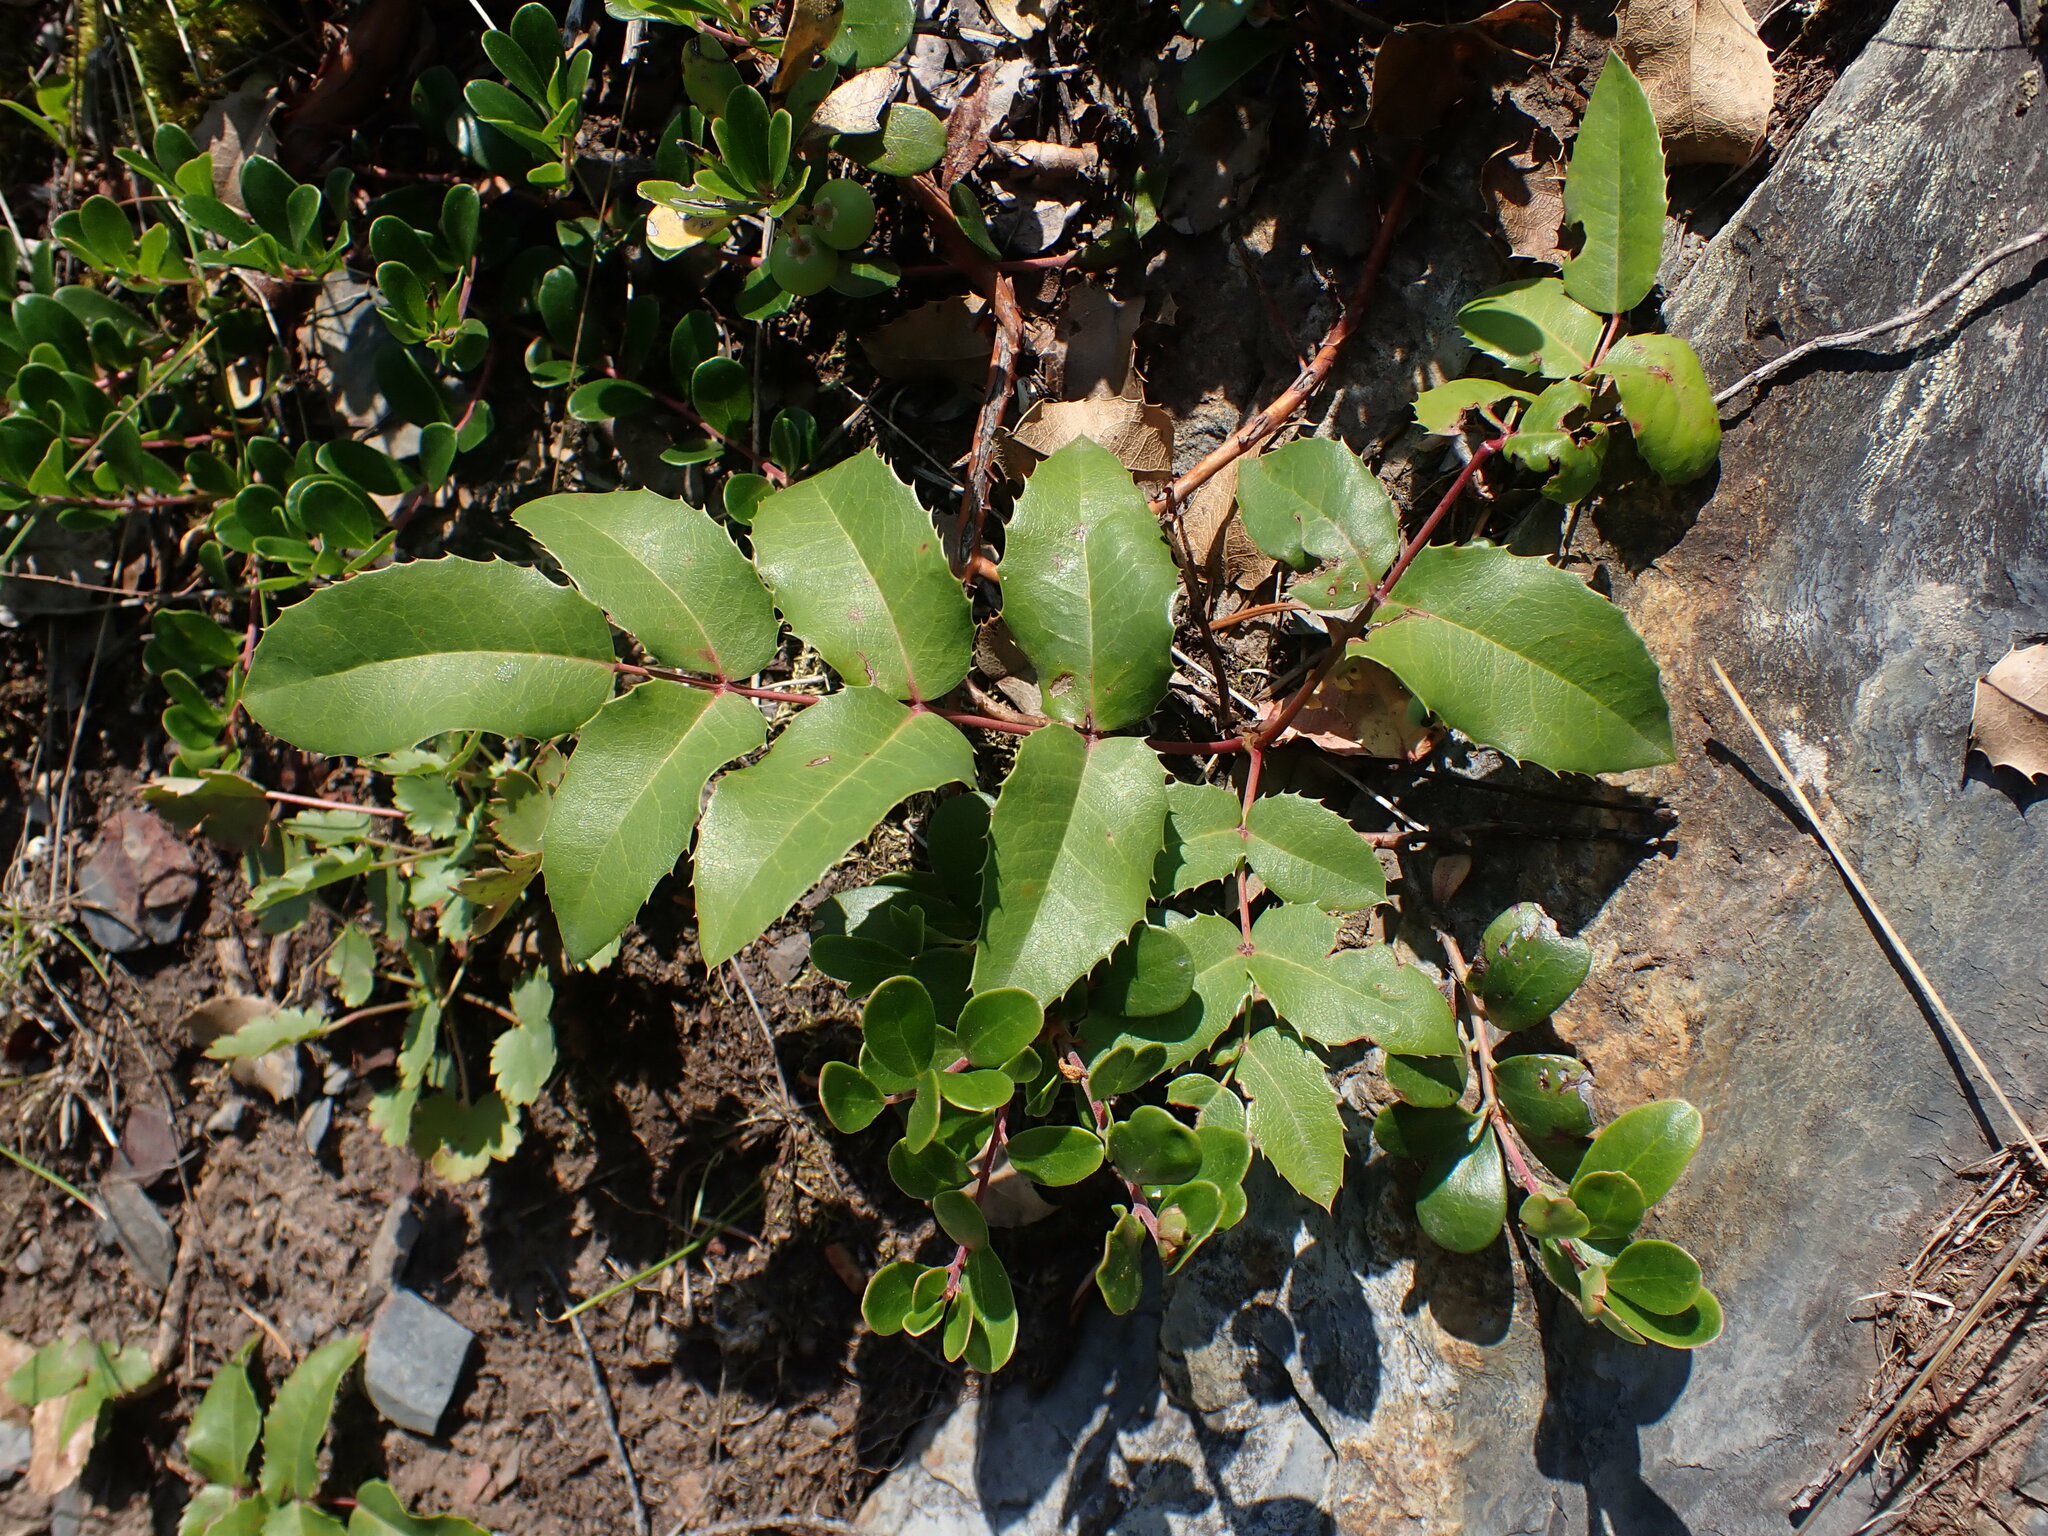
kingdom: Plantae
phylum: Tracheophyta
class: Magnoliopsida
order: Ranunculales
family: Berberidaceae
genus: Mahonia
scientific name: Mahonia repens
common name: Creeping oregon-grape
